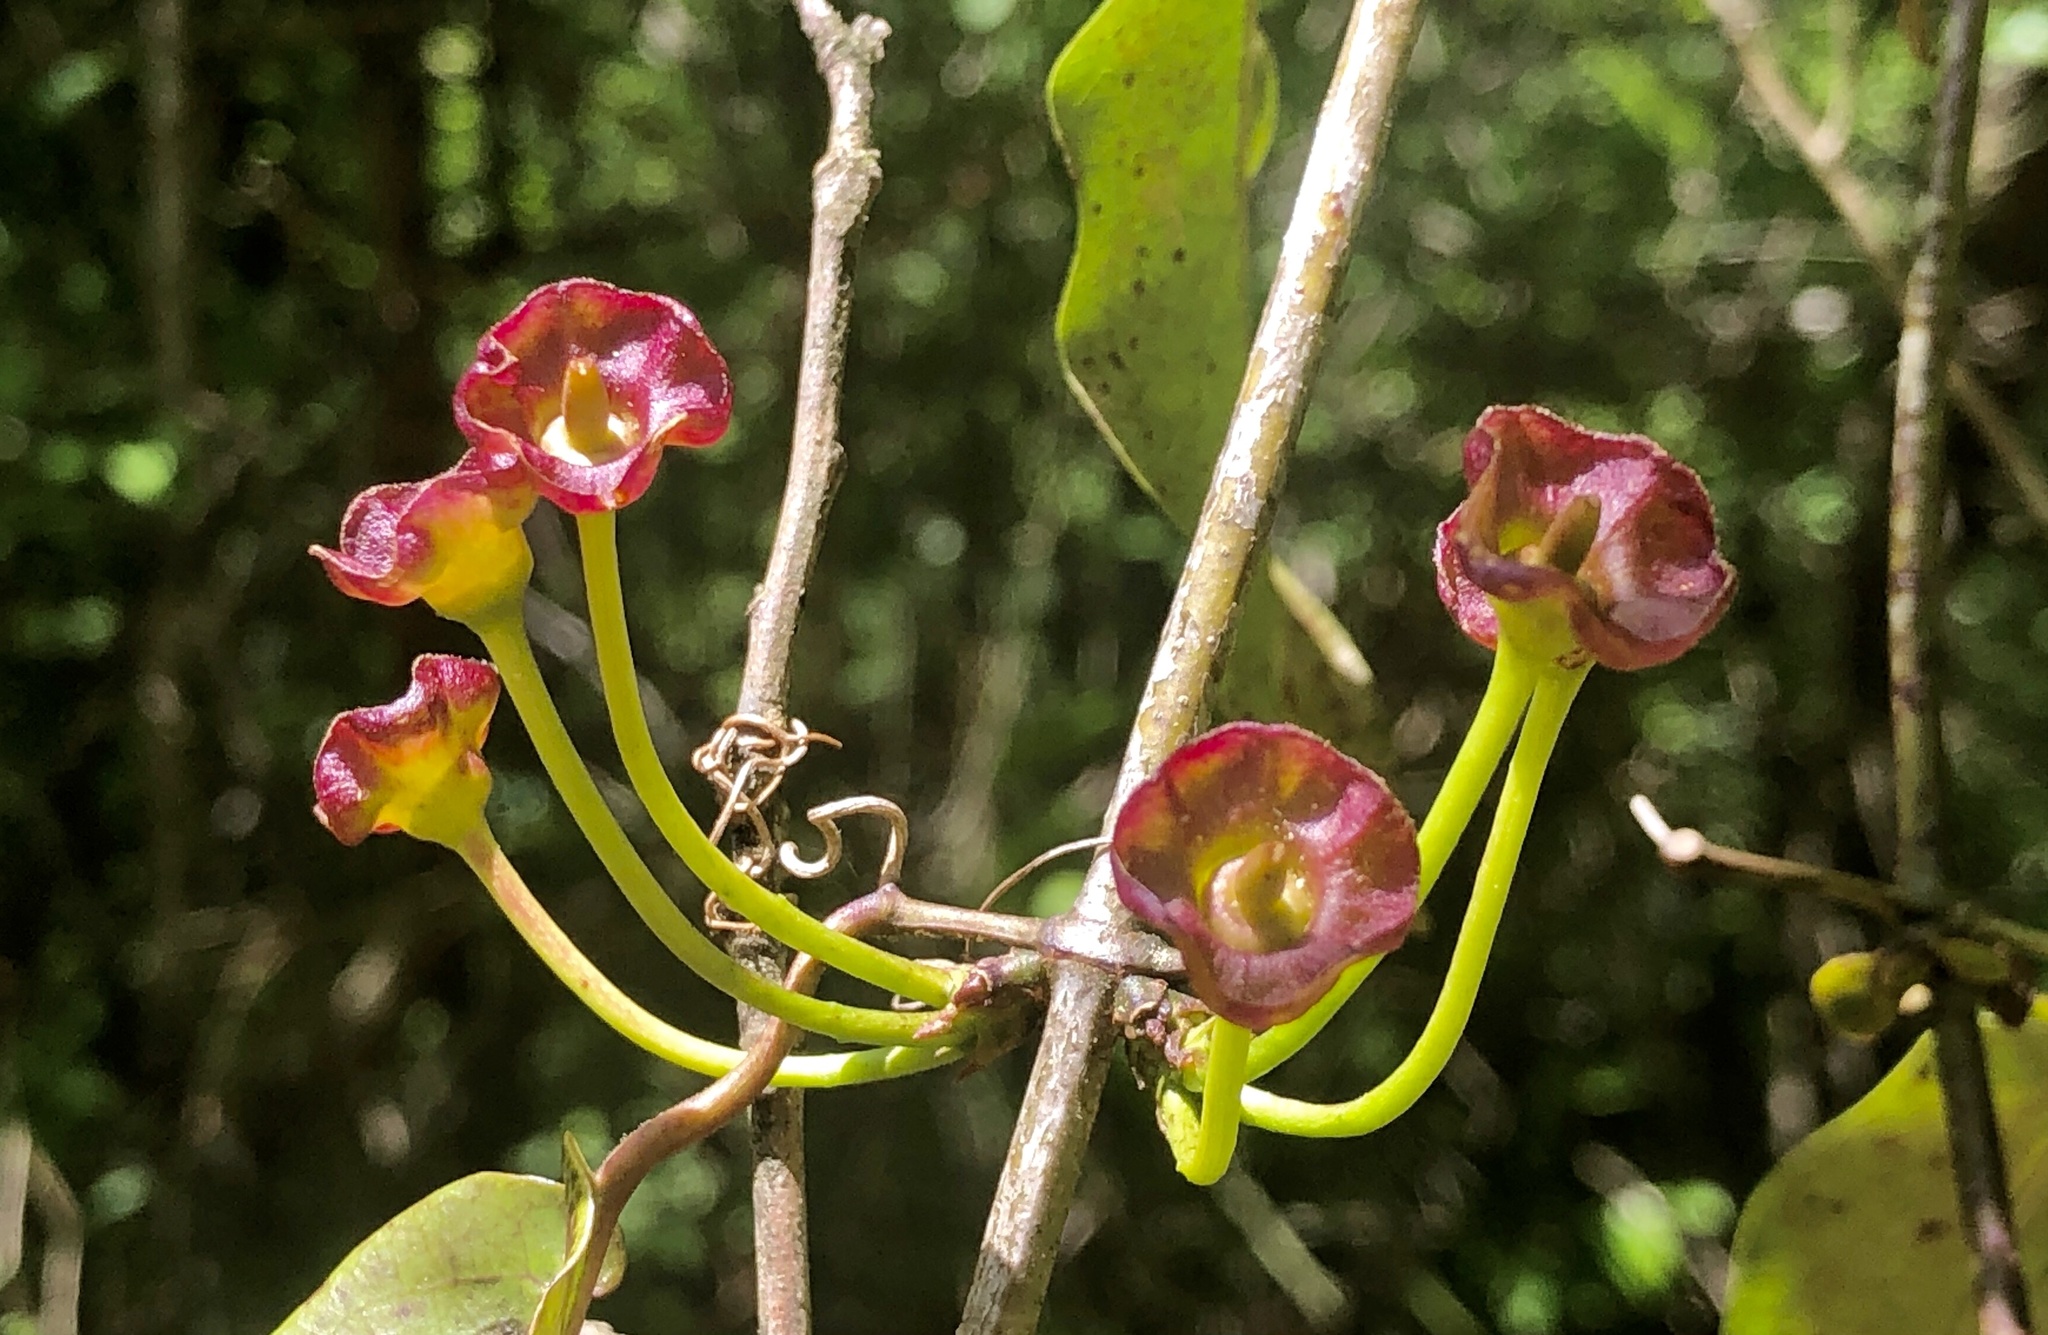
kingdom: Plantae
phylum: Tracheophyta
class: Magnoliopsida
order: Lamiales
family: Bignoniaceae
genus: Bignonia
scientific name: Bignonia capreolata
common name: Crossvine
